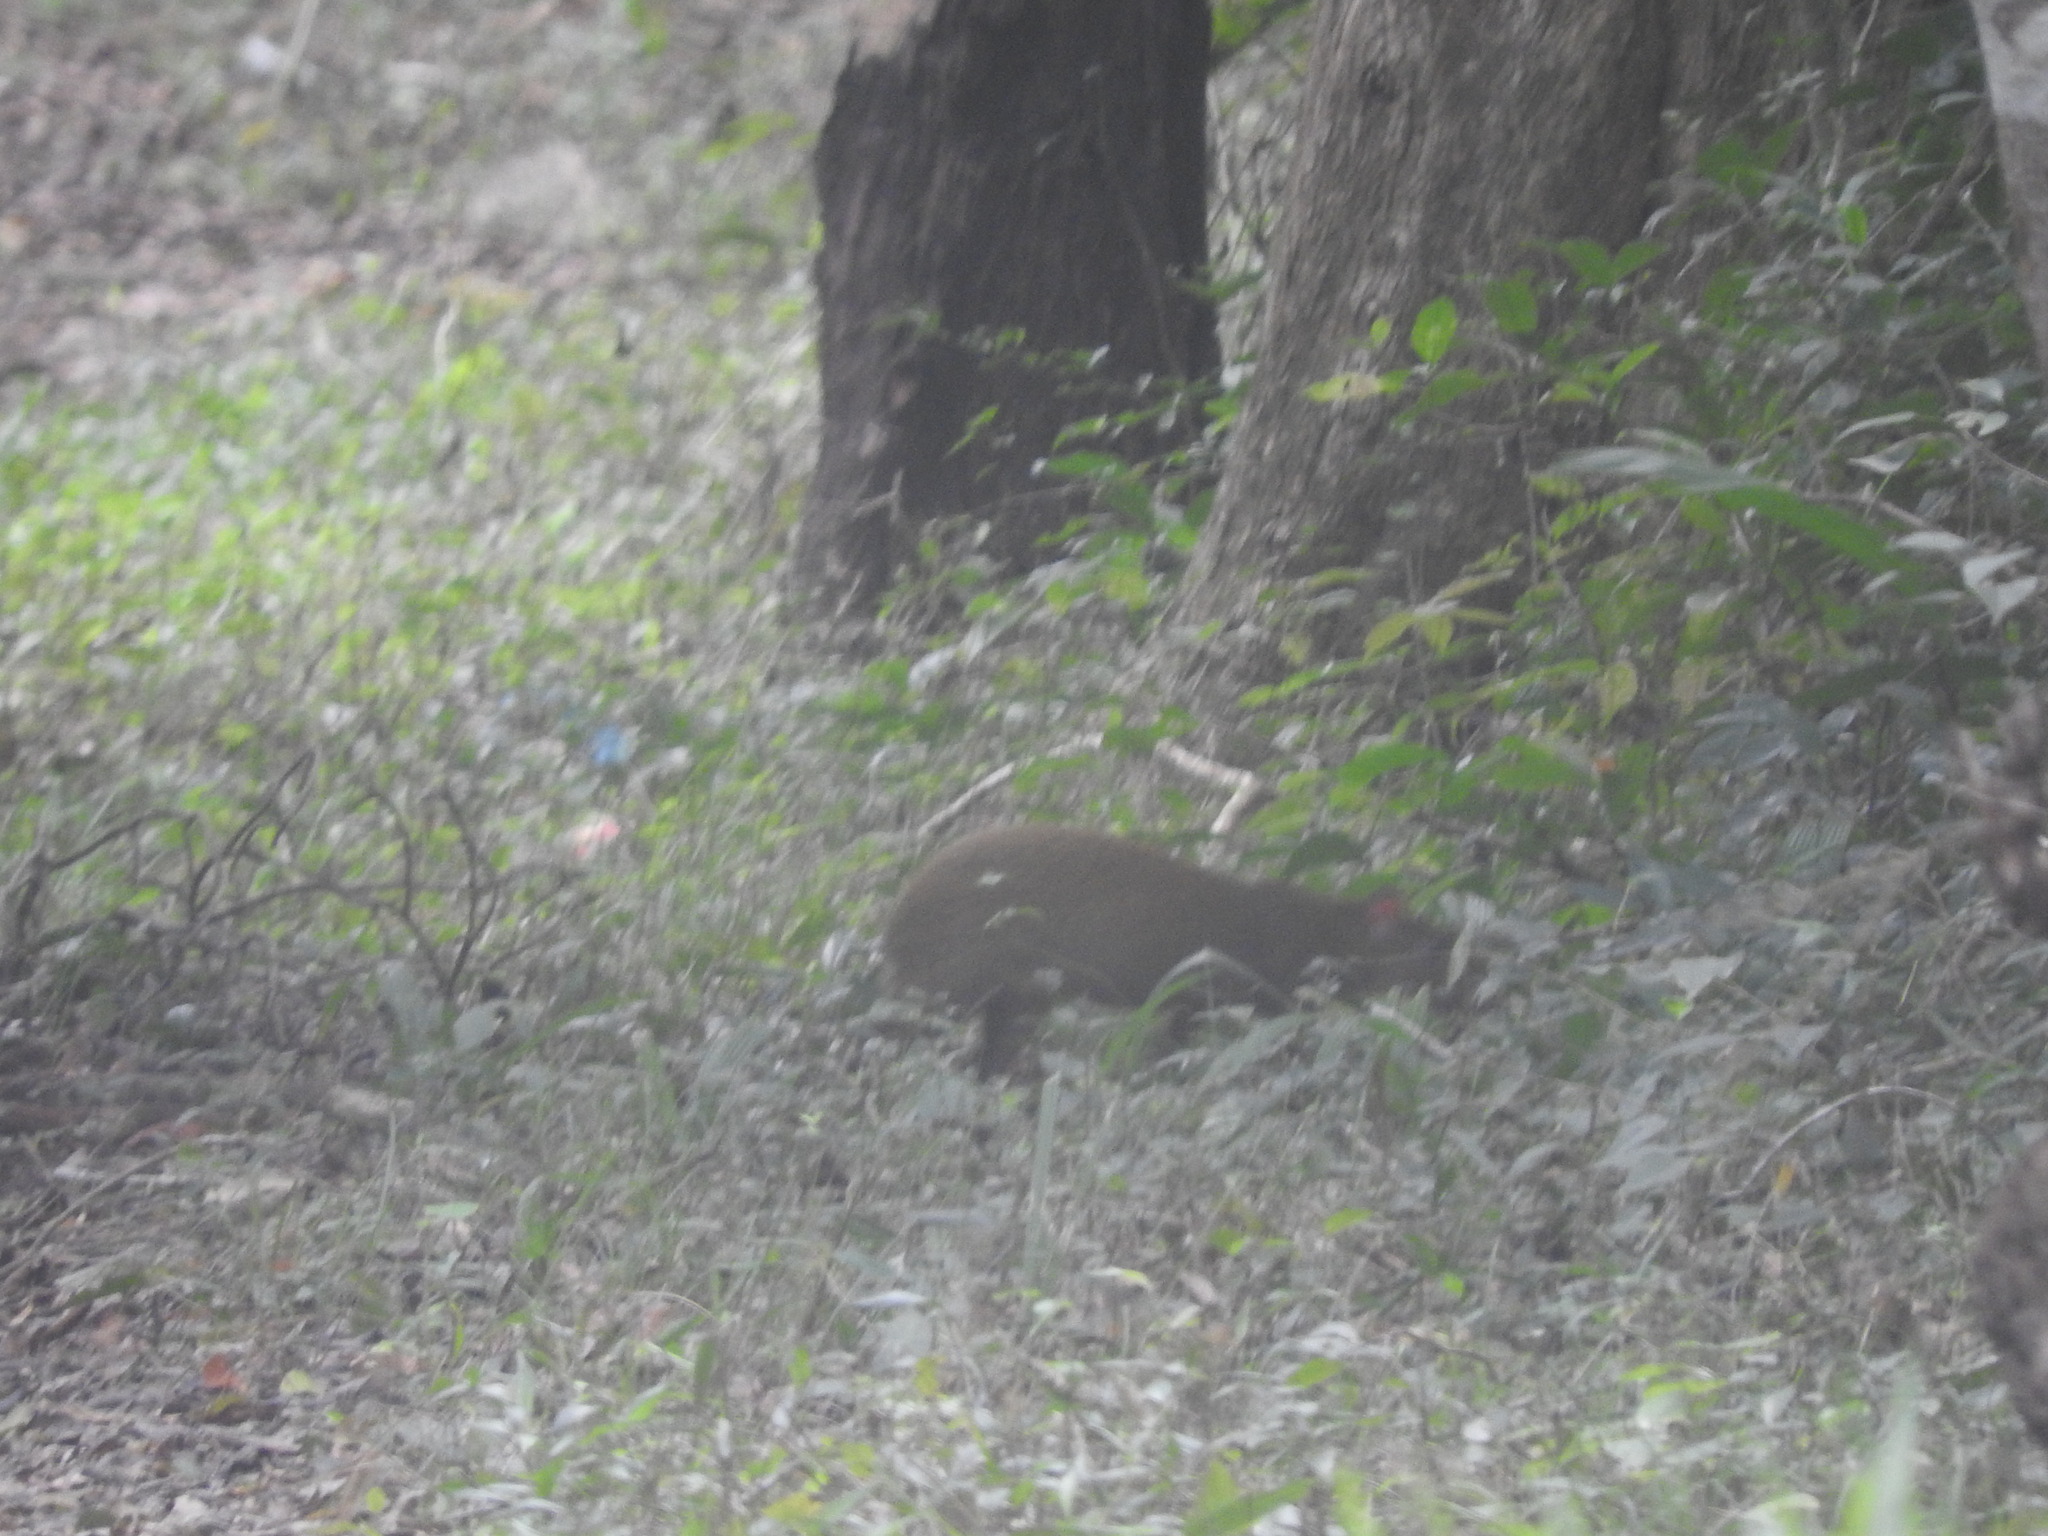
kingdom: Animalia
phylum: Chordata
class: Mammalia
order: Rodentia
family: Dasyproctidae
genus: Dasyprocta
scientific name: Dasyprocta punctata
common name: Central american agouti
